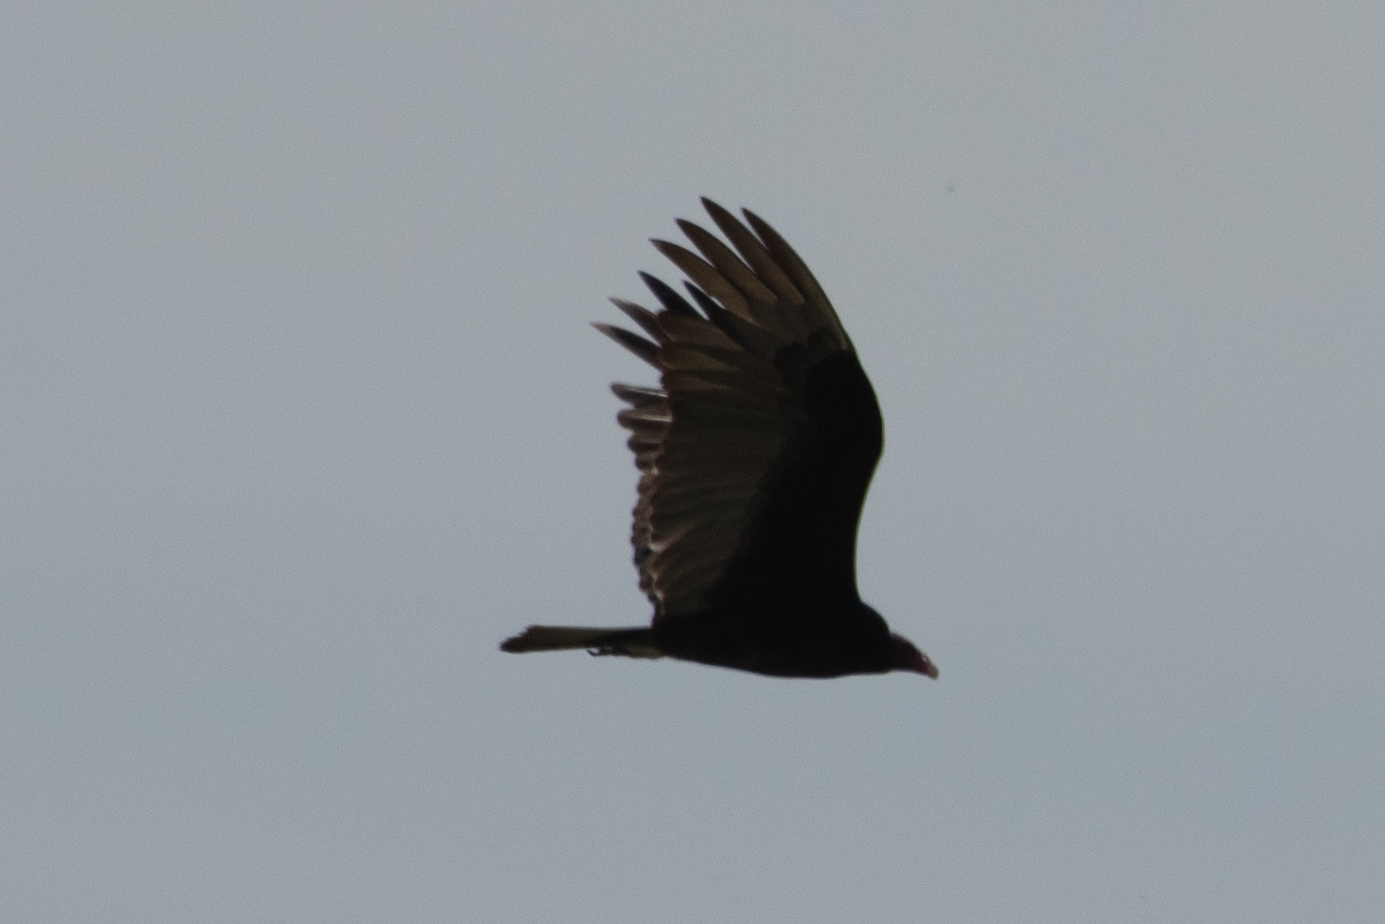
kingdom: Animalia
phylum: Chordata
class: Aves
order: Accipitriformes
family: Cathartidae
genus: Cathartes
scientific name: Cathartes aura
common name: Turkey vulture
